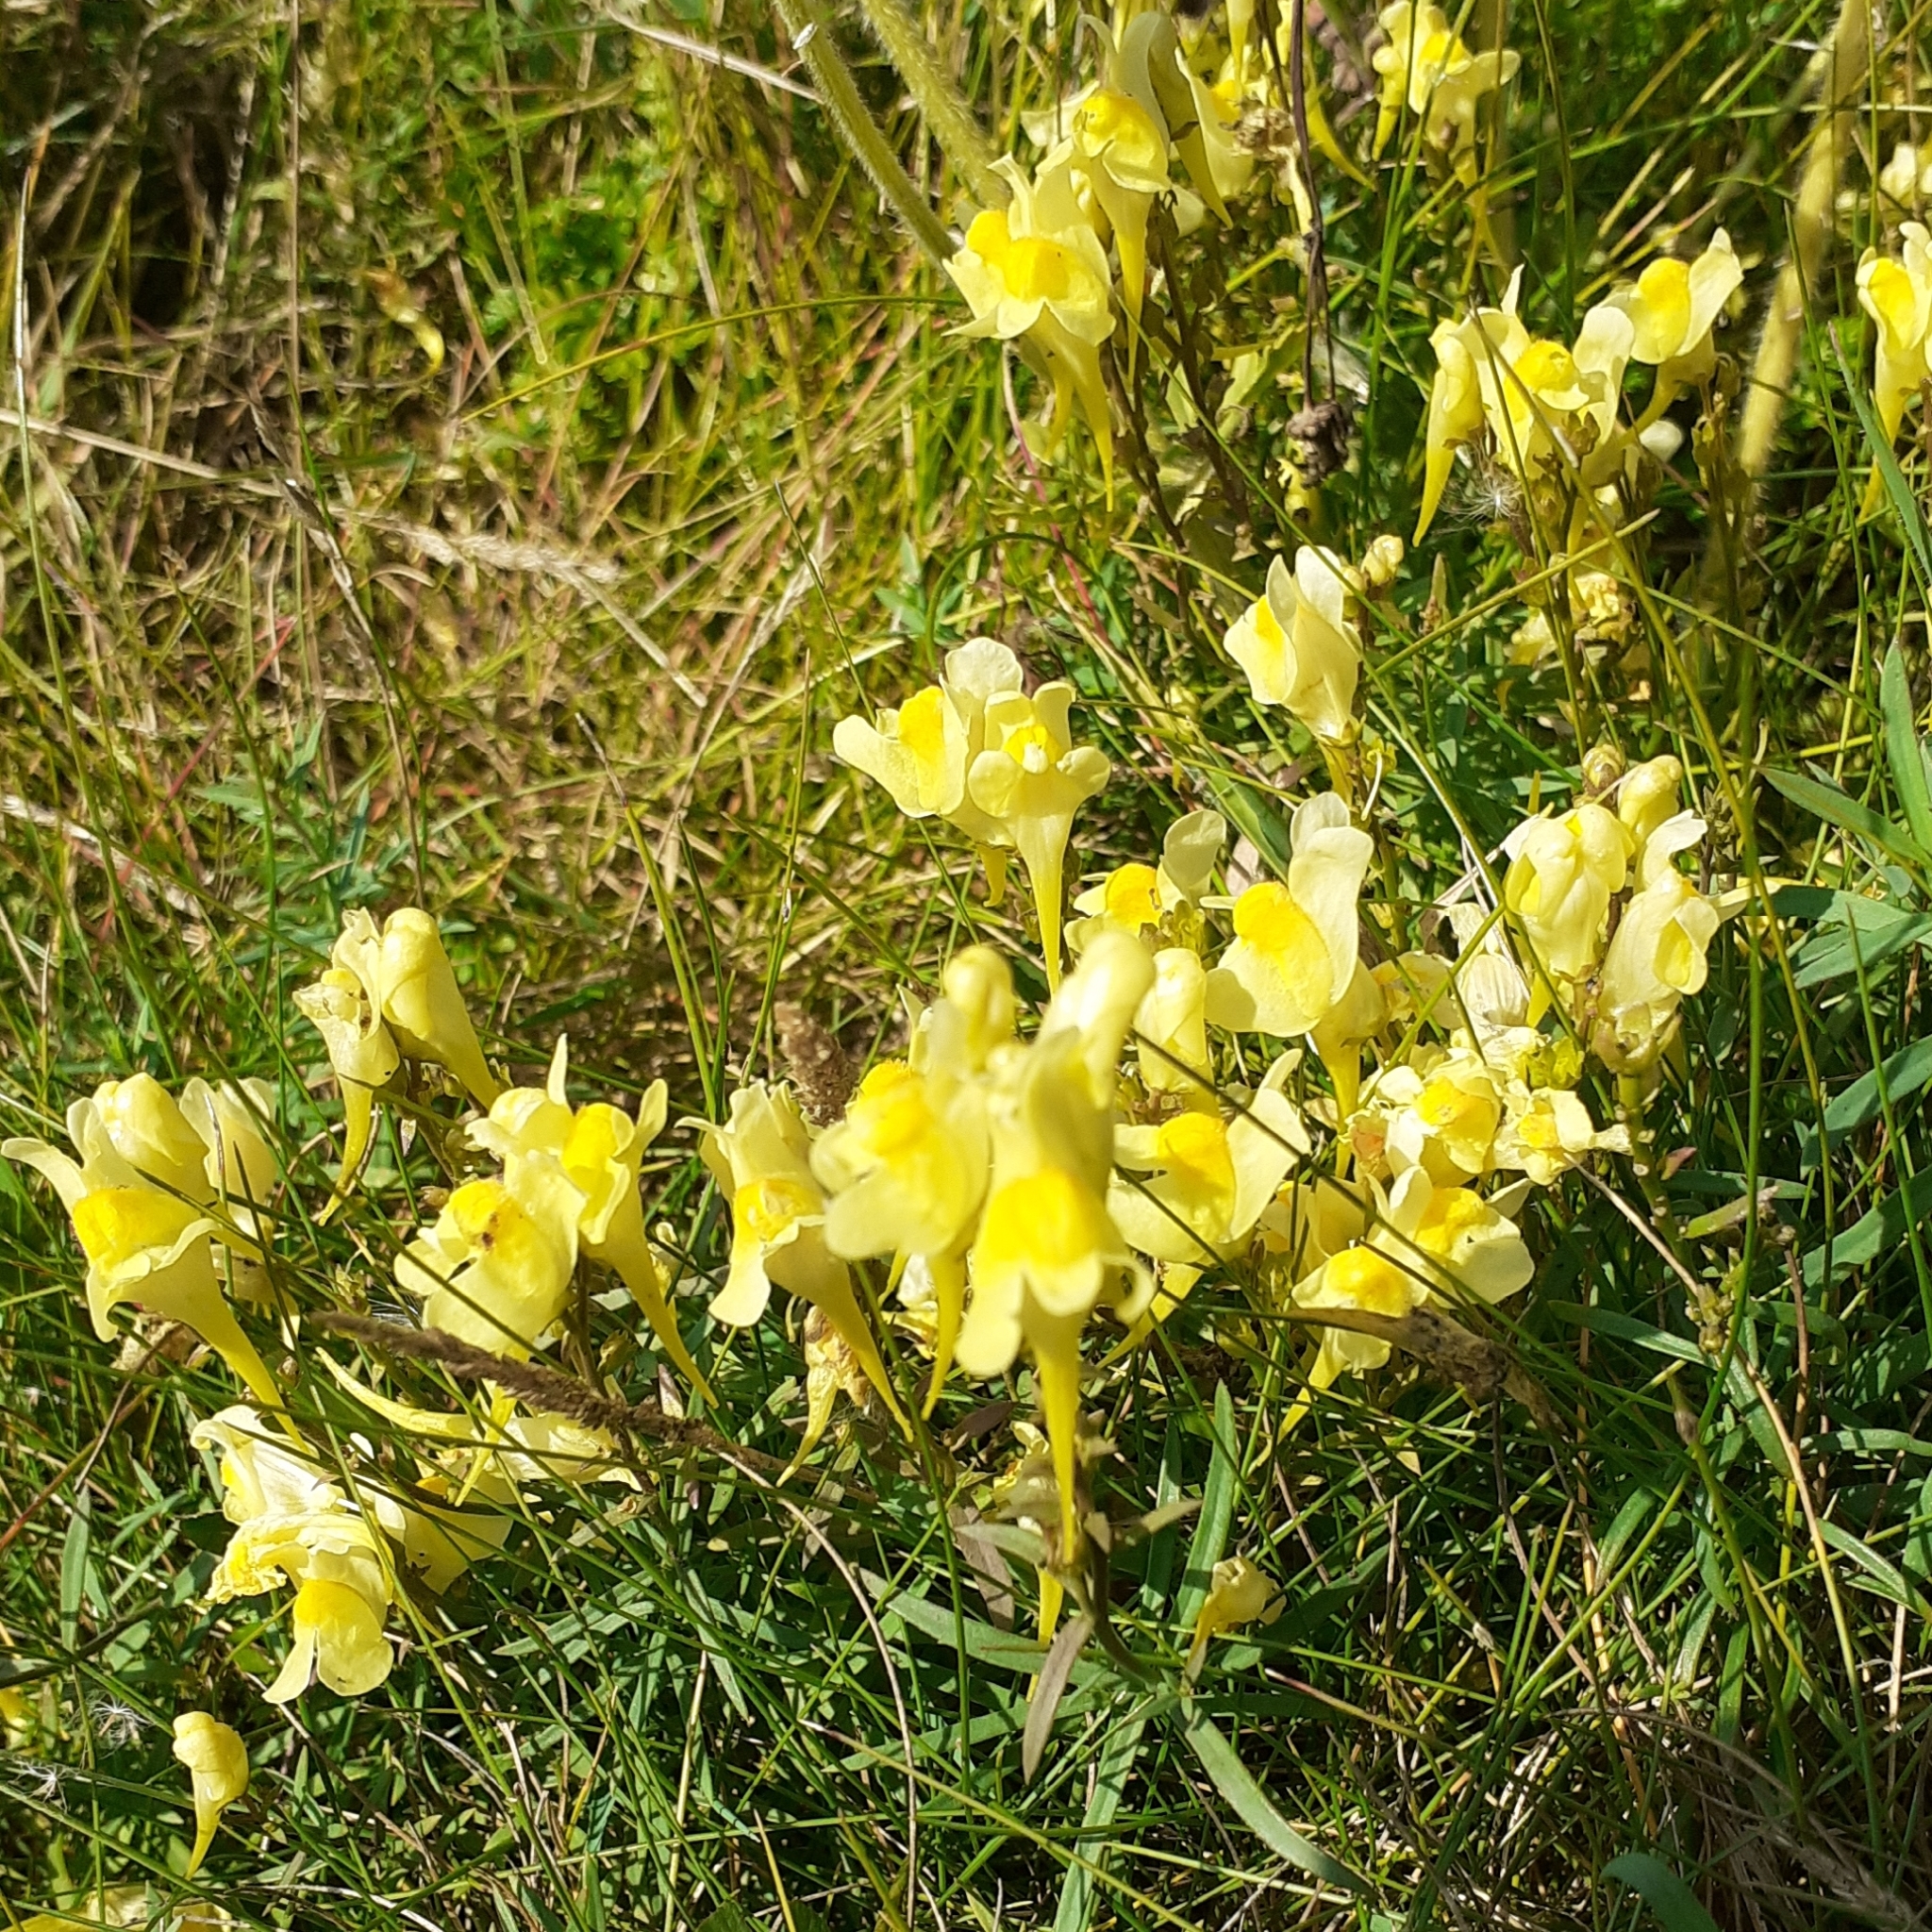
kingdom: Plantae
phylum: Tracheophyta
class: Magnoliopsida
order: Lamiales
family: Plantaginaceae
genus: Linaria
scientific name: Linaria vulgaris
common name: Butter and eggs
